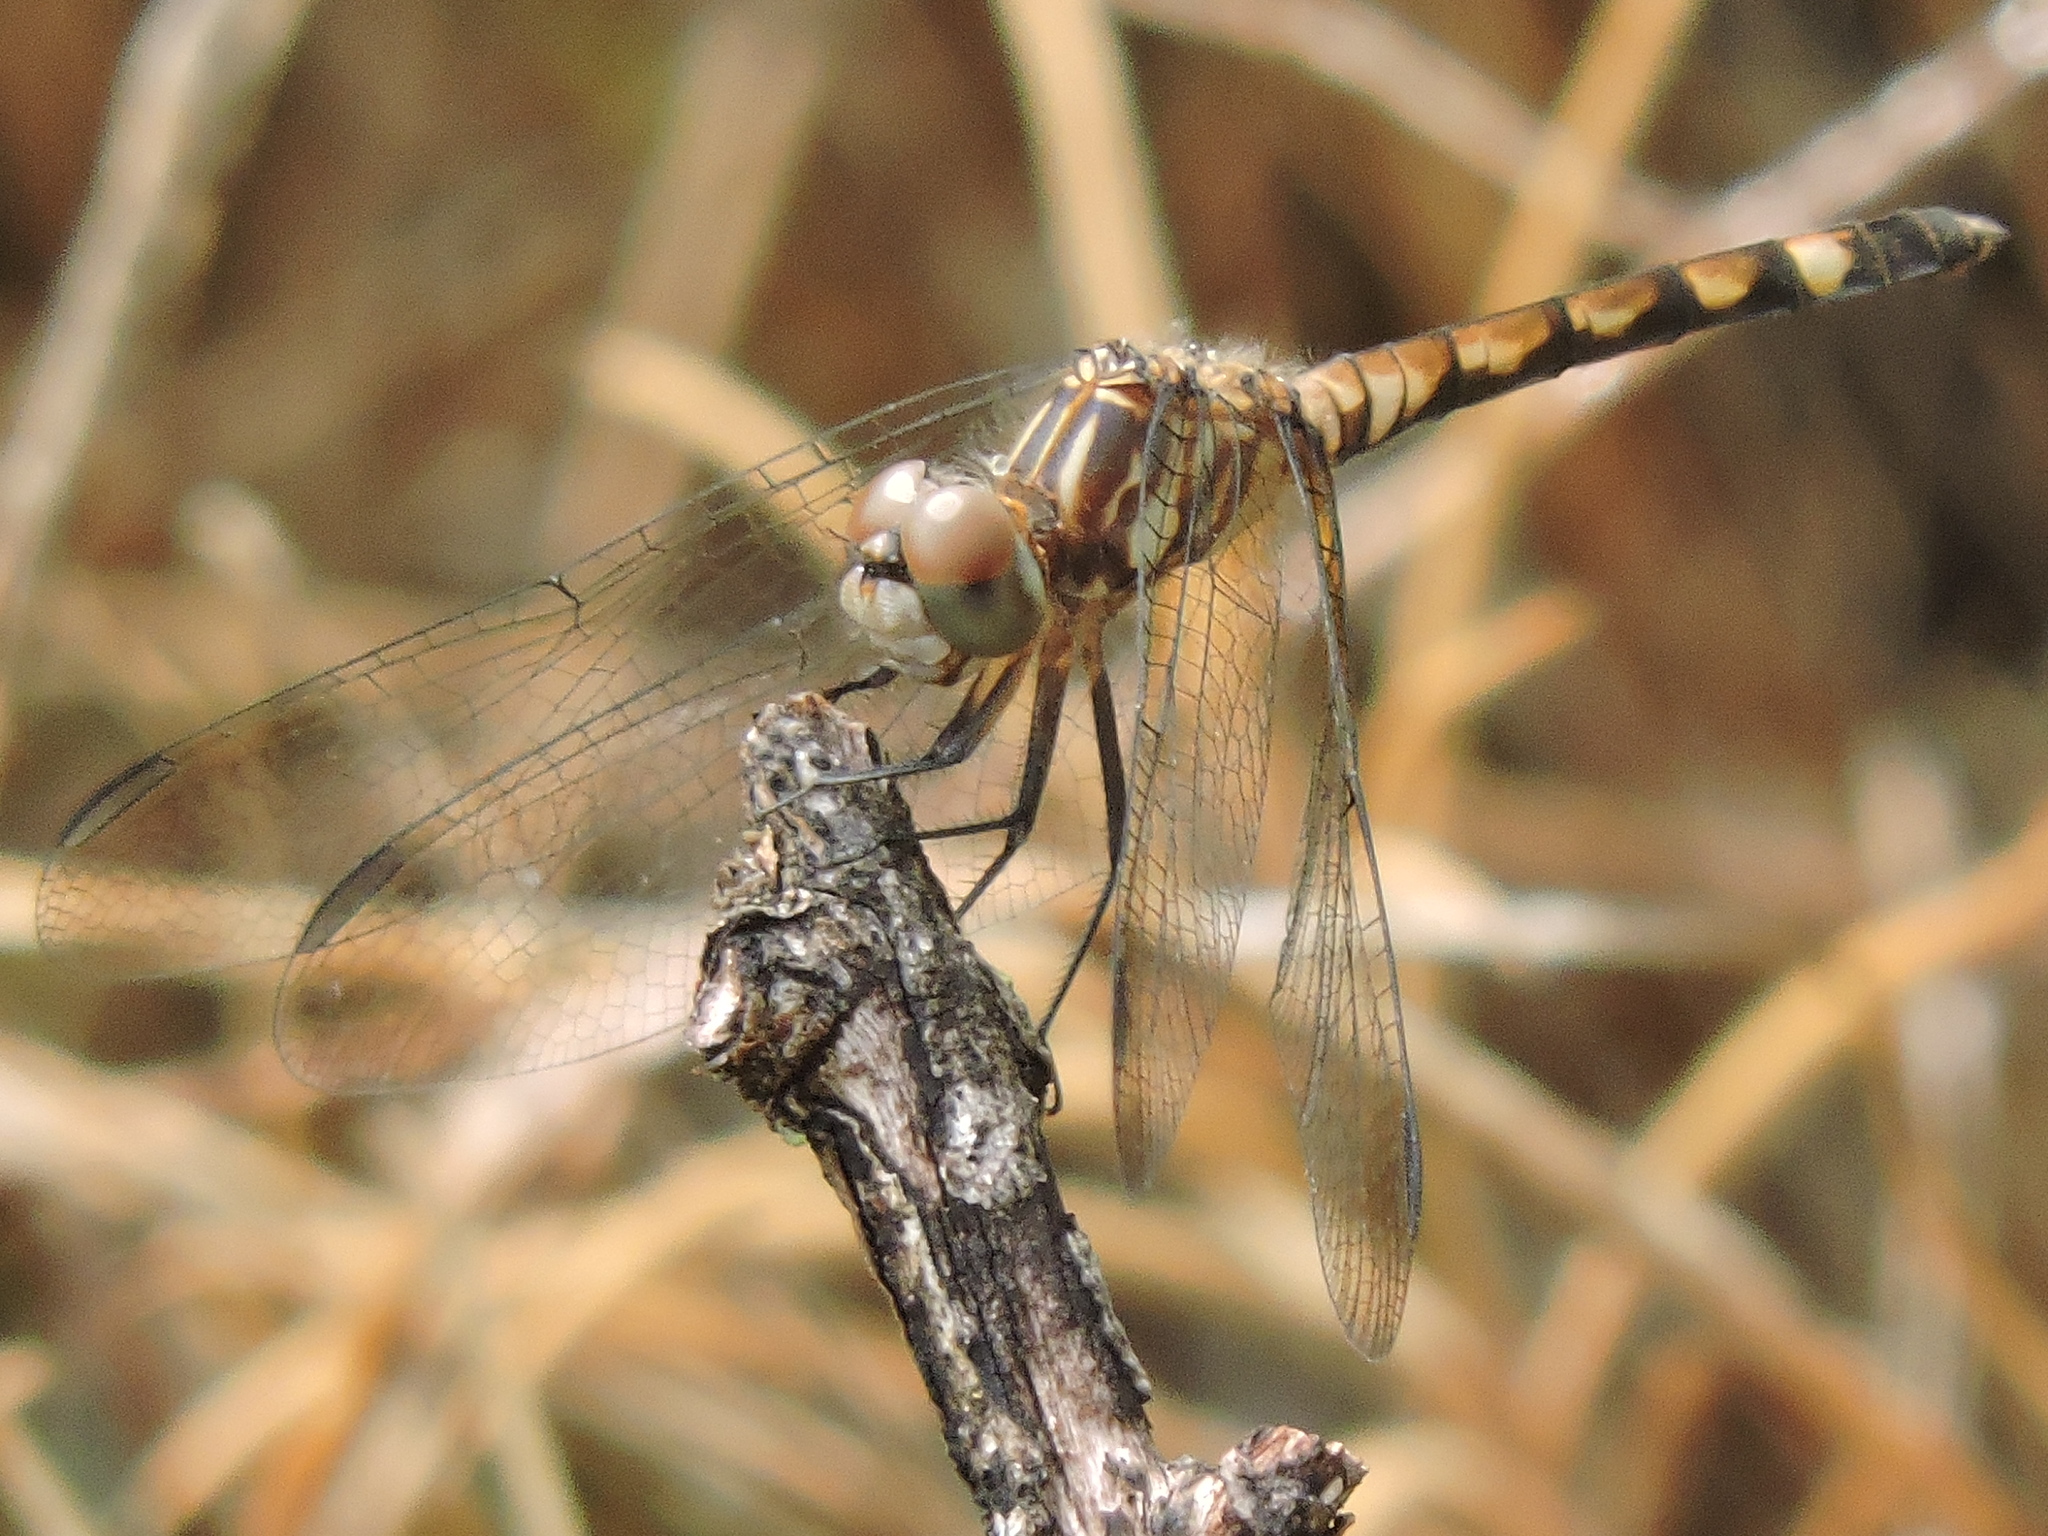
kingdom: Animalia
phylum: Arthropoda
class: Insecta
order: Odonata
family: Libellulidae
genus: Micrathyria
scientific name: Micrathyria hagenii
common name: Thornbush dasher
